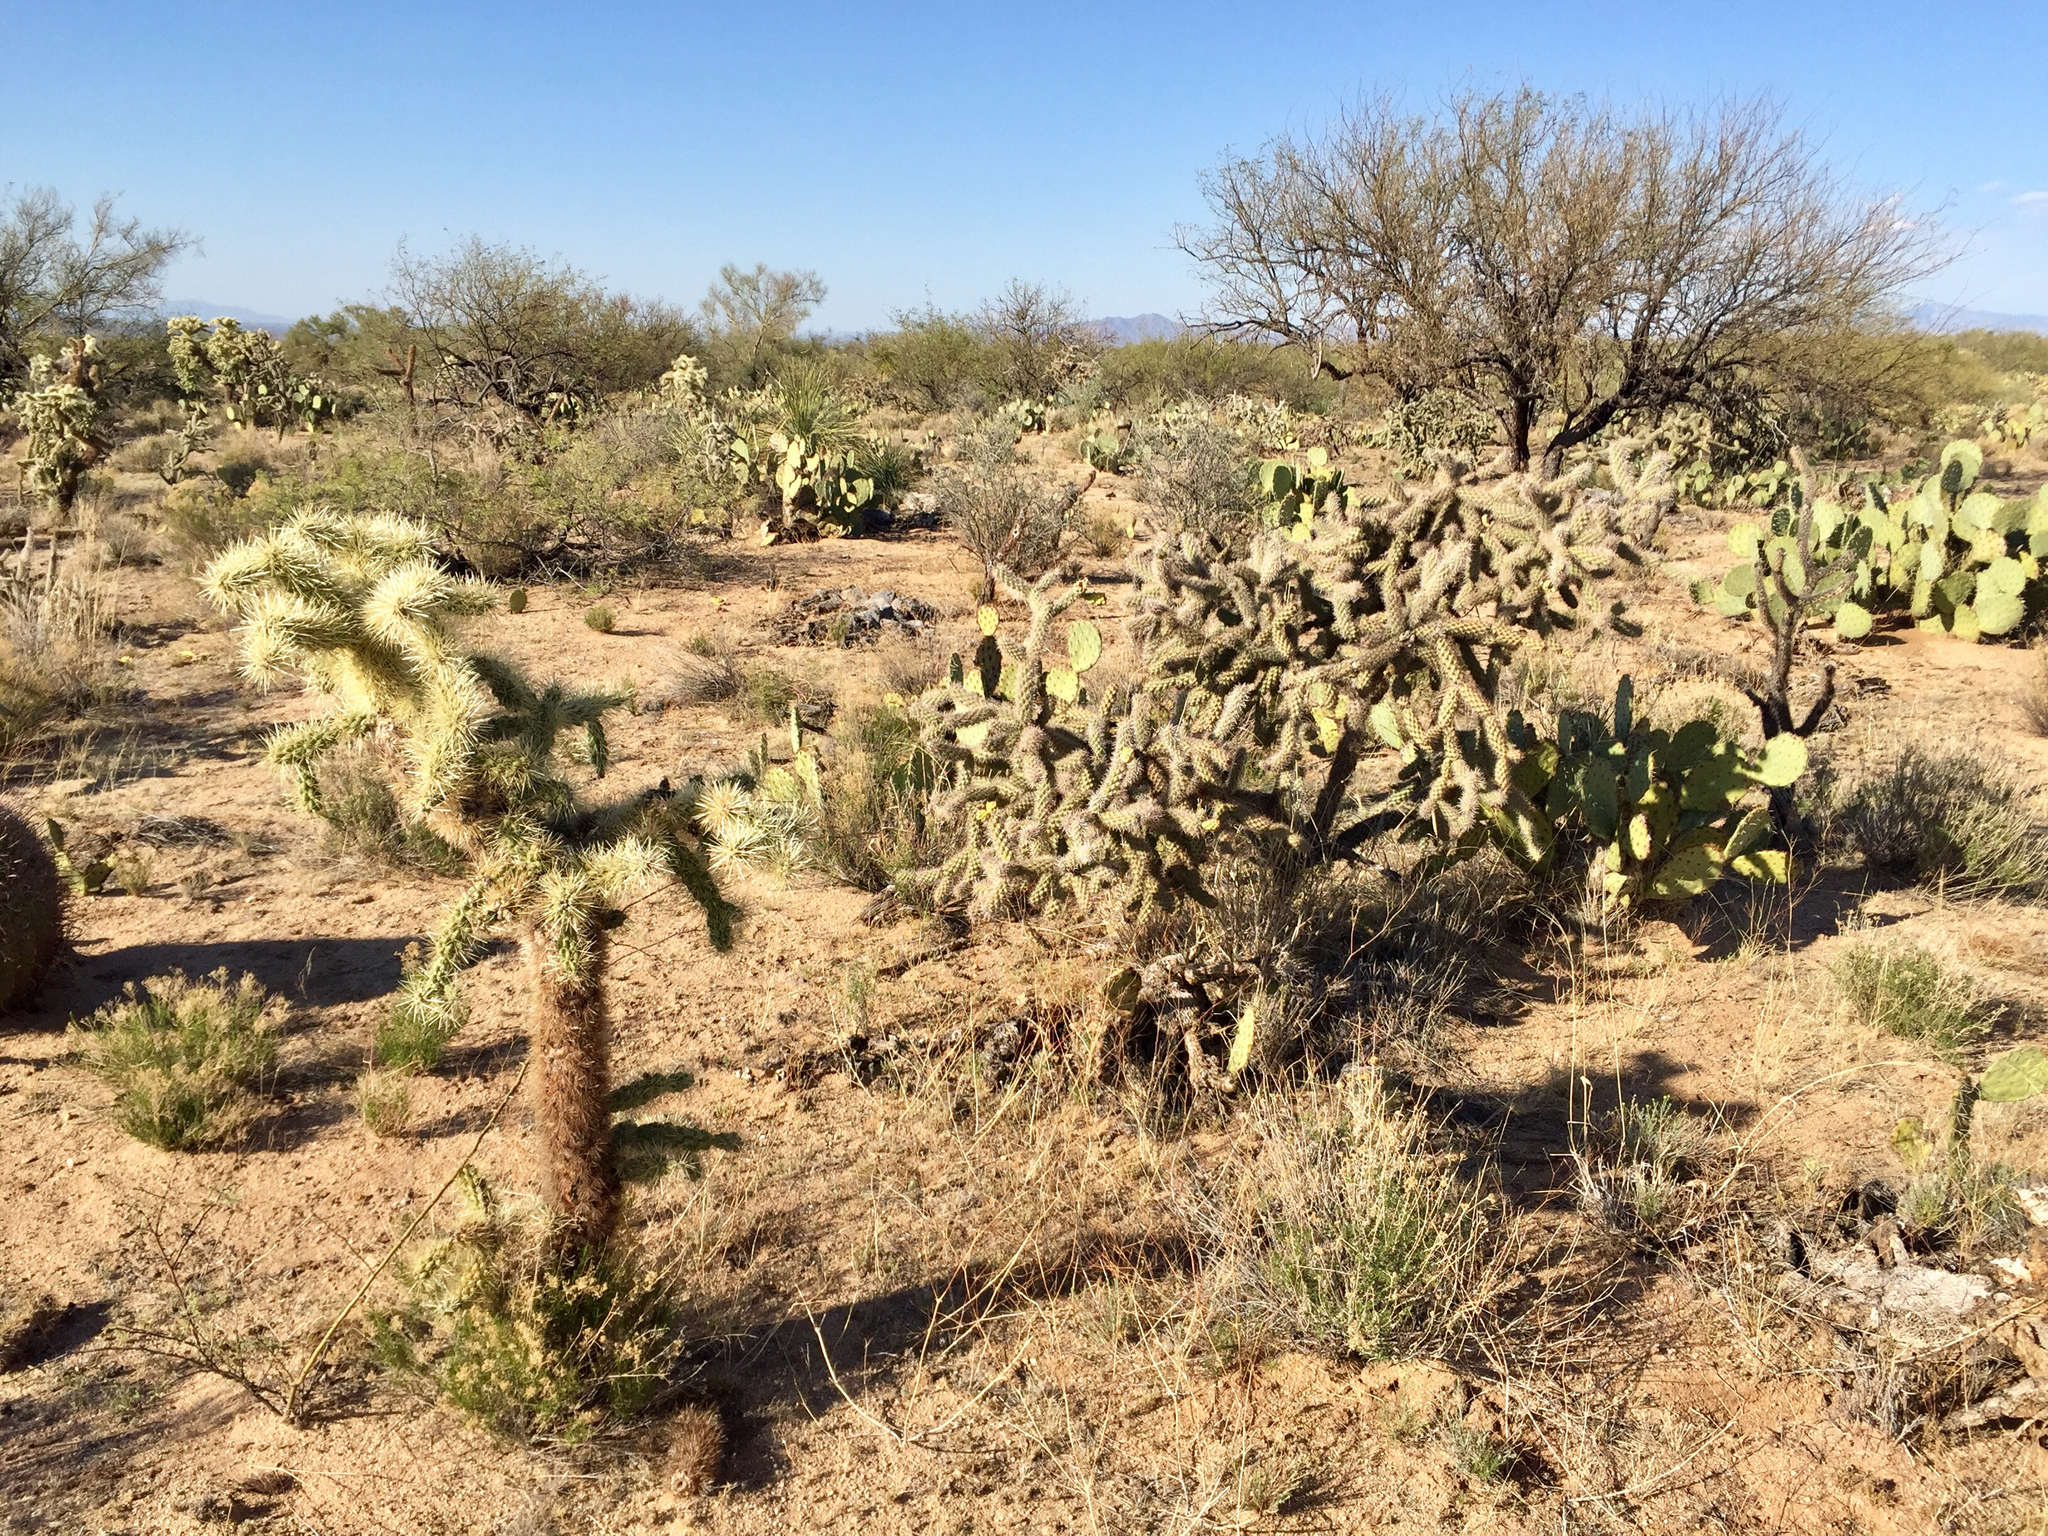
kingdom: Plantae
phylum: Tracheophyta
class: Magnoliopsida
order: Caryophyllales
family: Cactaceae
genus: Cylindropuntia
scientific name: Cylindropuntia fulgida
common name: Jumping cholla
